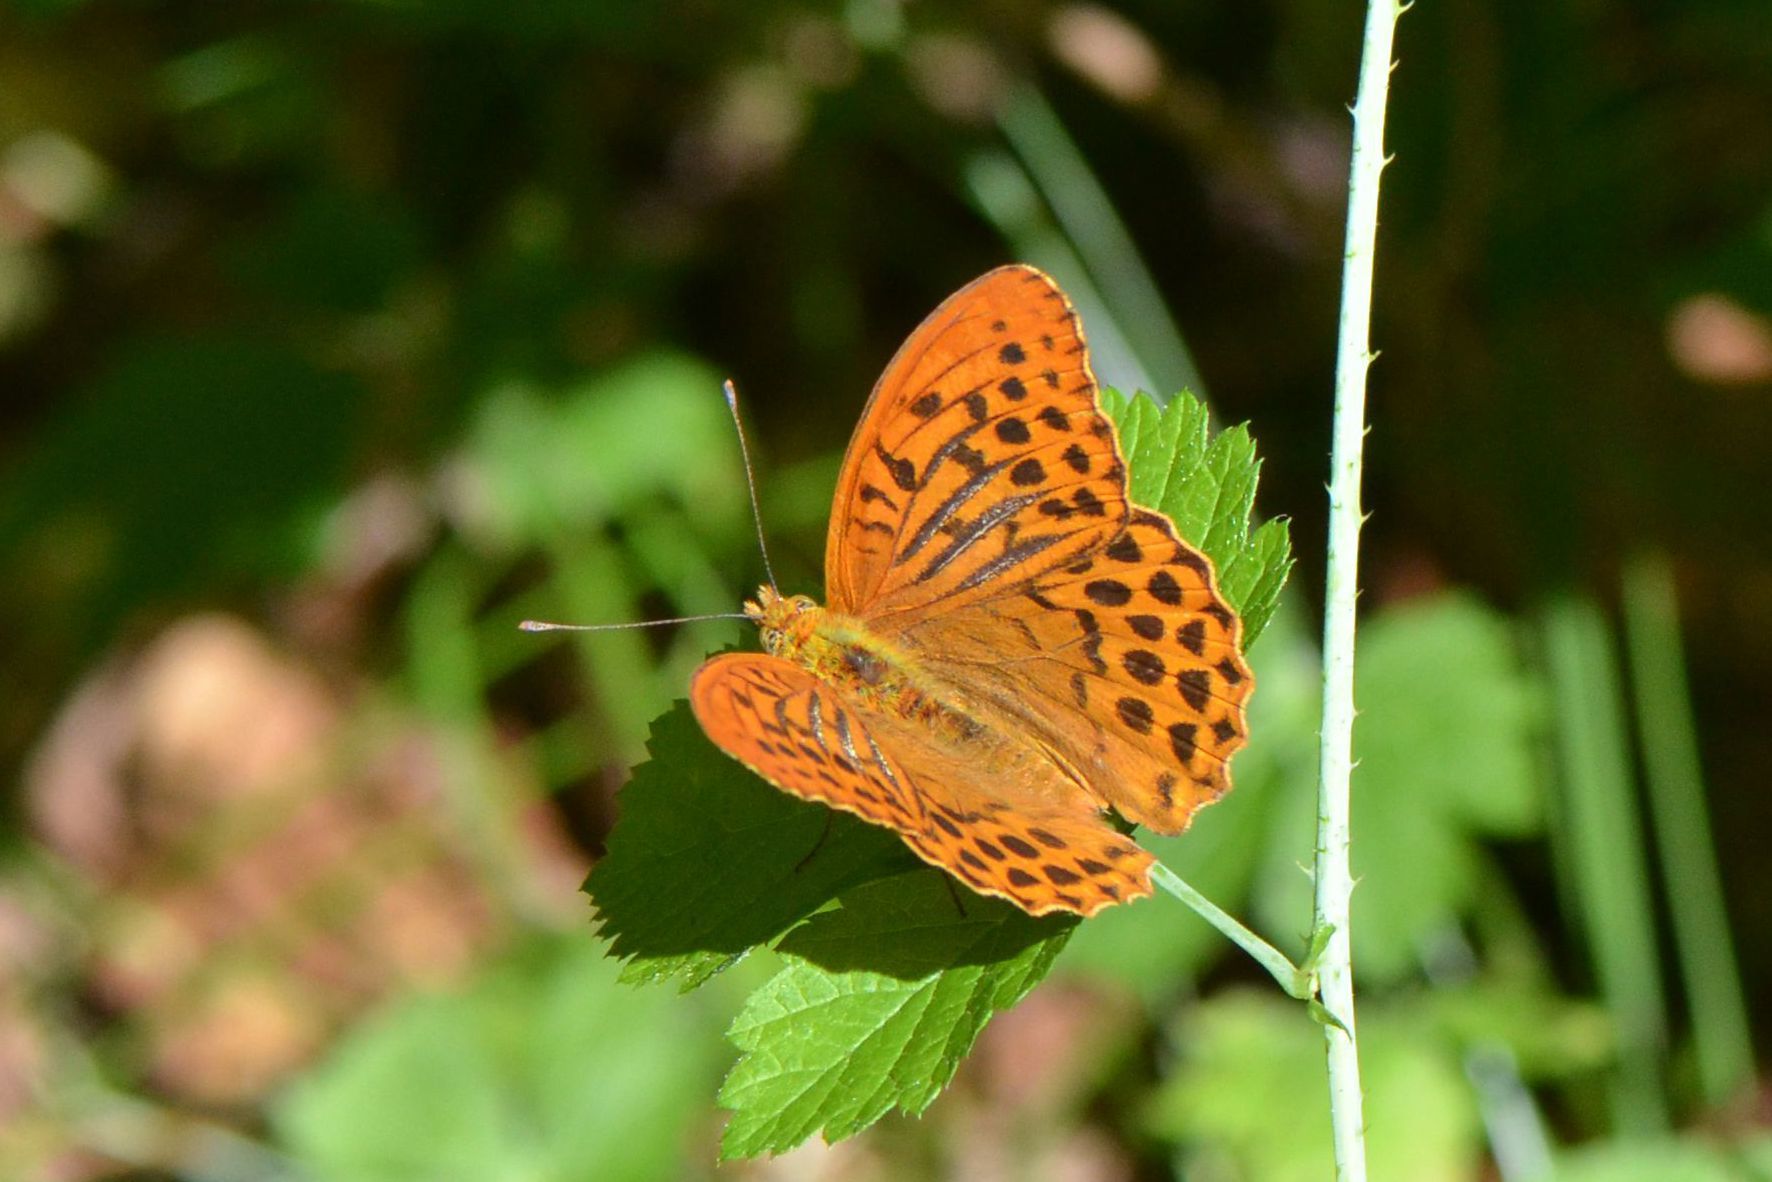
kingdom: Animalia
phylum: Arthropoda
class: Insecta
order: Lepidoptera
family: Nymphalidae
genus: Argynnis
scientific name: Argynnis paphia
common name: Silver-washed fritillary
